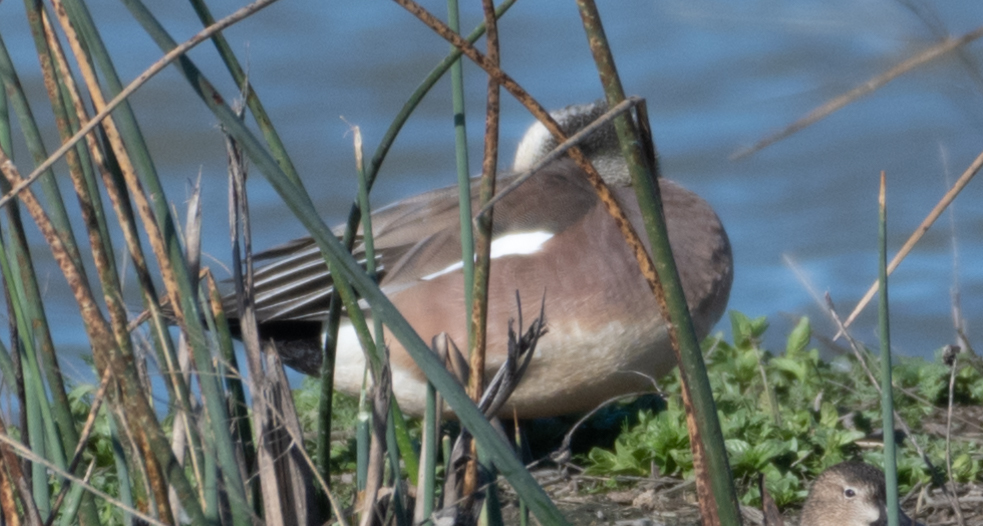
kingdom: Animalia
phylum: Chordata
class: Aves
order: Anseriformes
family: Anatidae
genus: Mareca
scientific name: Mareca americana
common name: American wigeon
